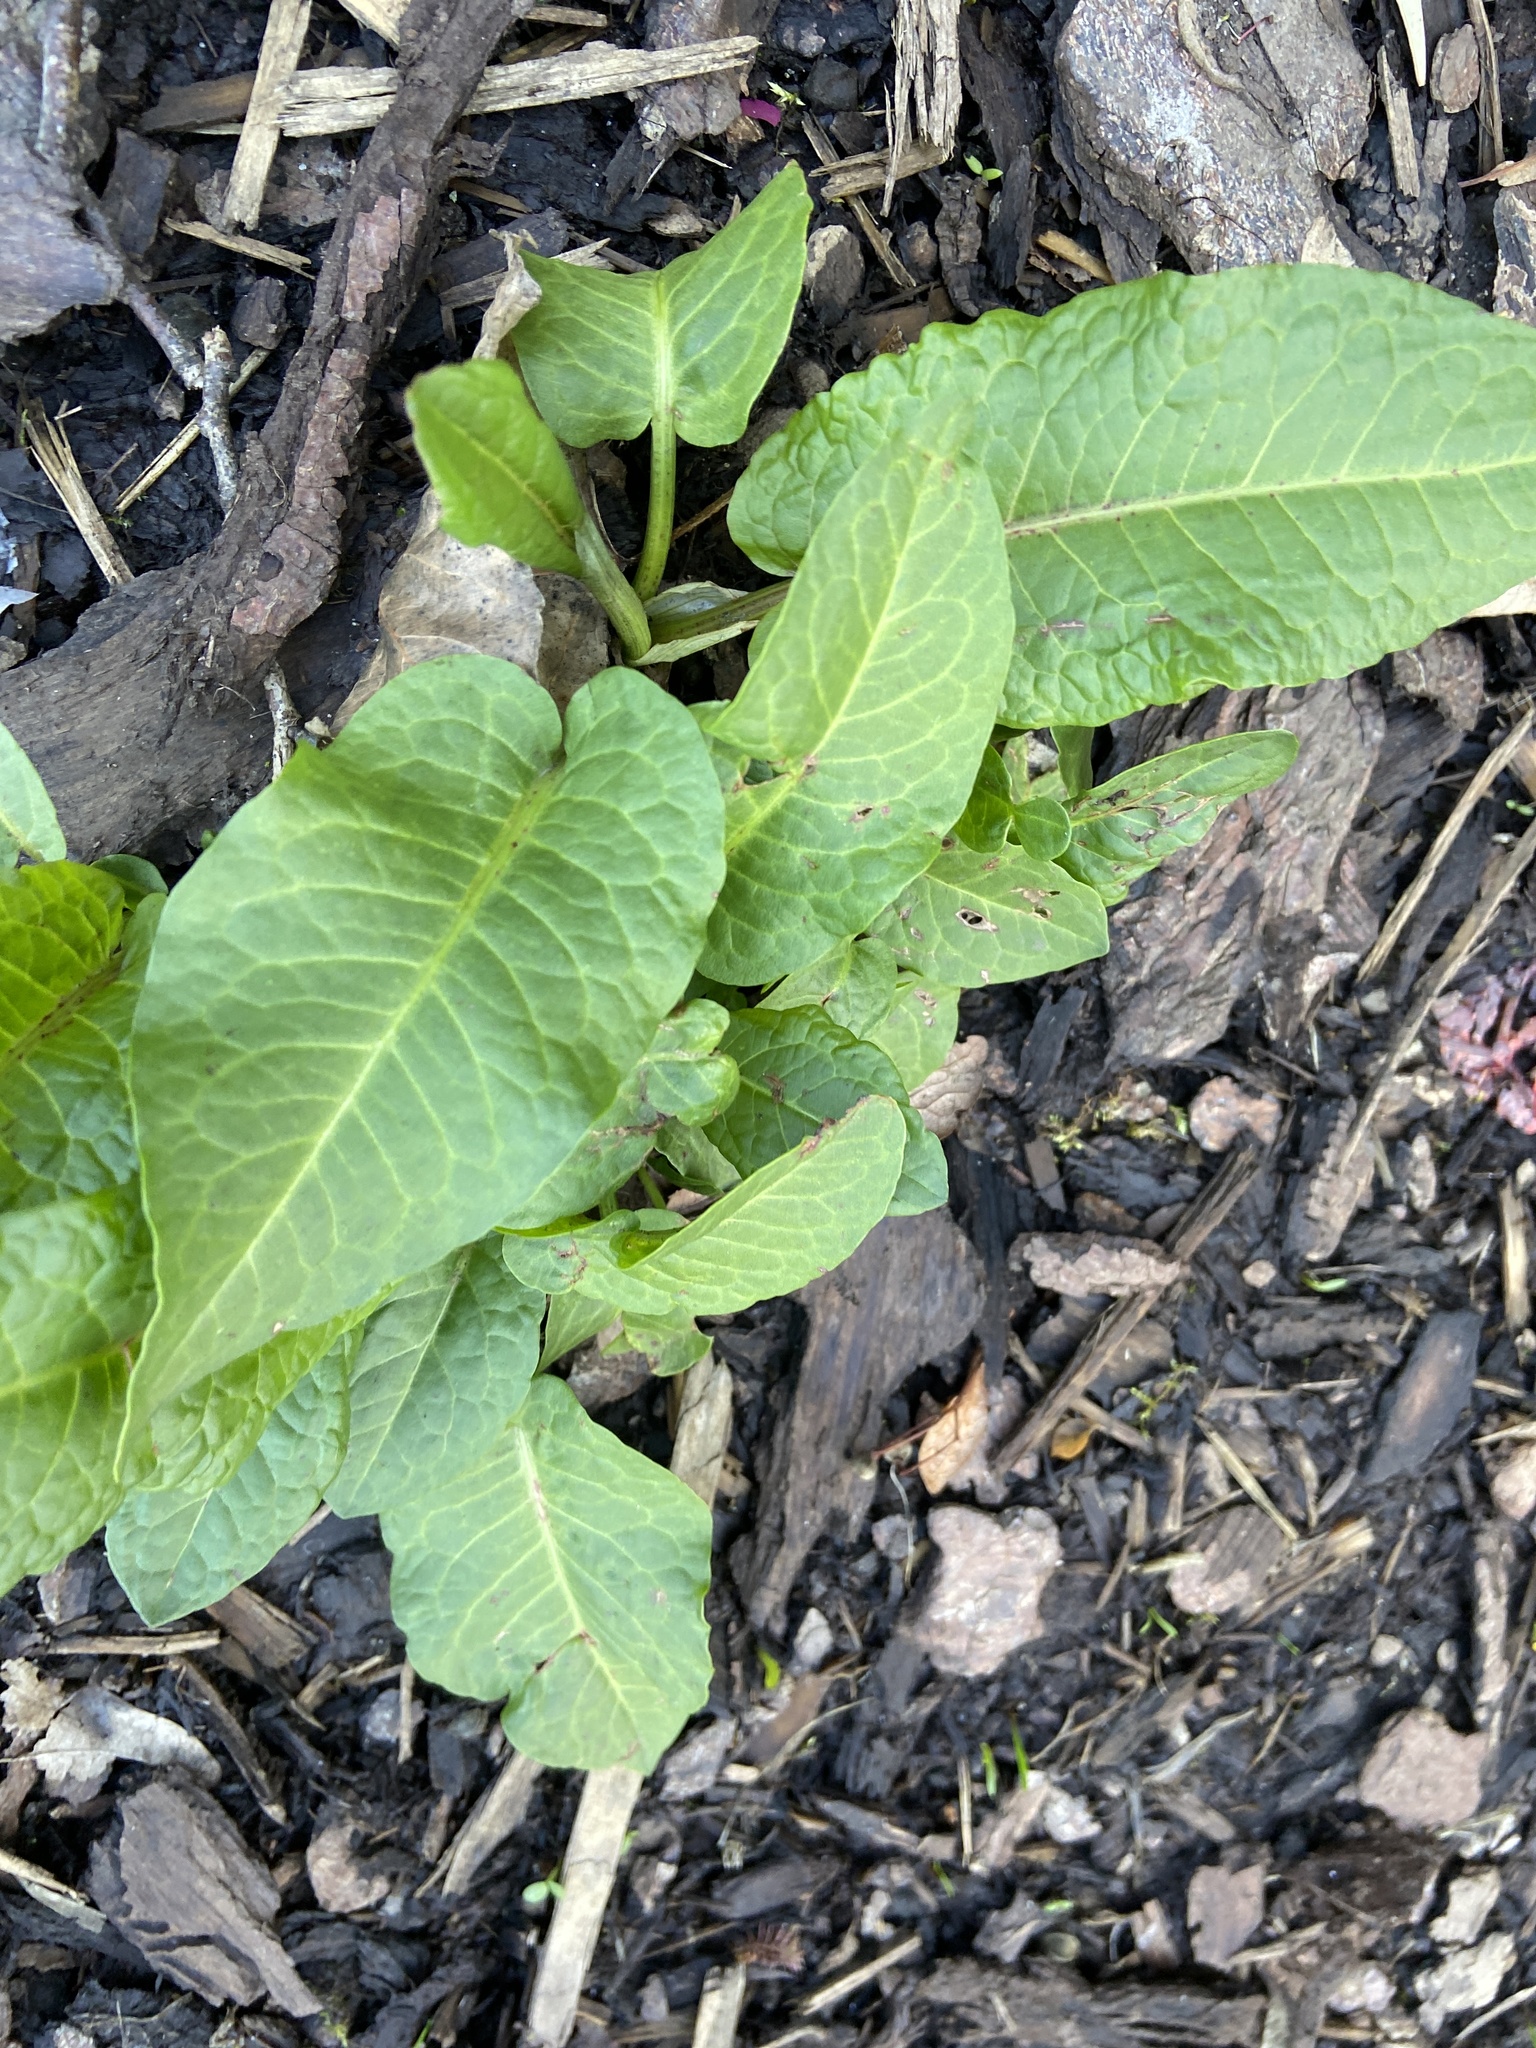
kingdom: Plantae
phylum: Tracheophyta
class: Magnoliopsida
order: Caryophyllales
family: Polygonaceae
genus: Rumex
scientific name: Rumex obtusifolius
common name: Bitter dock
